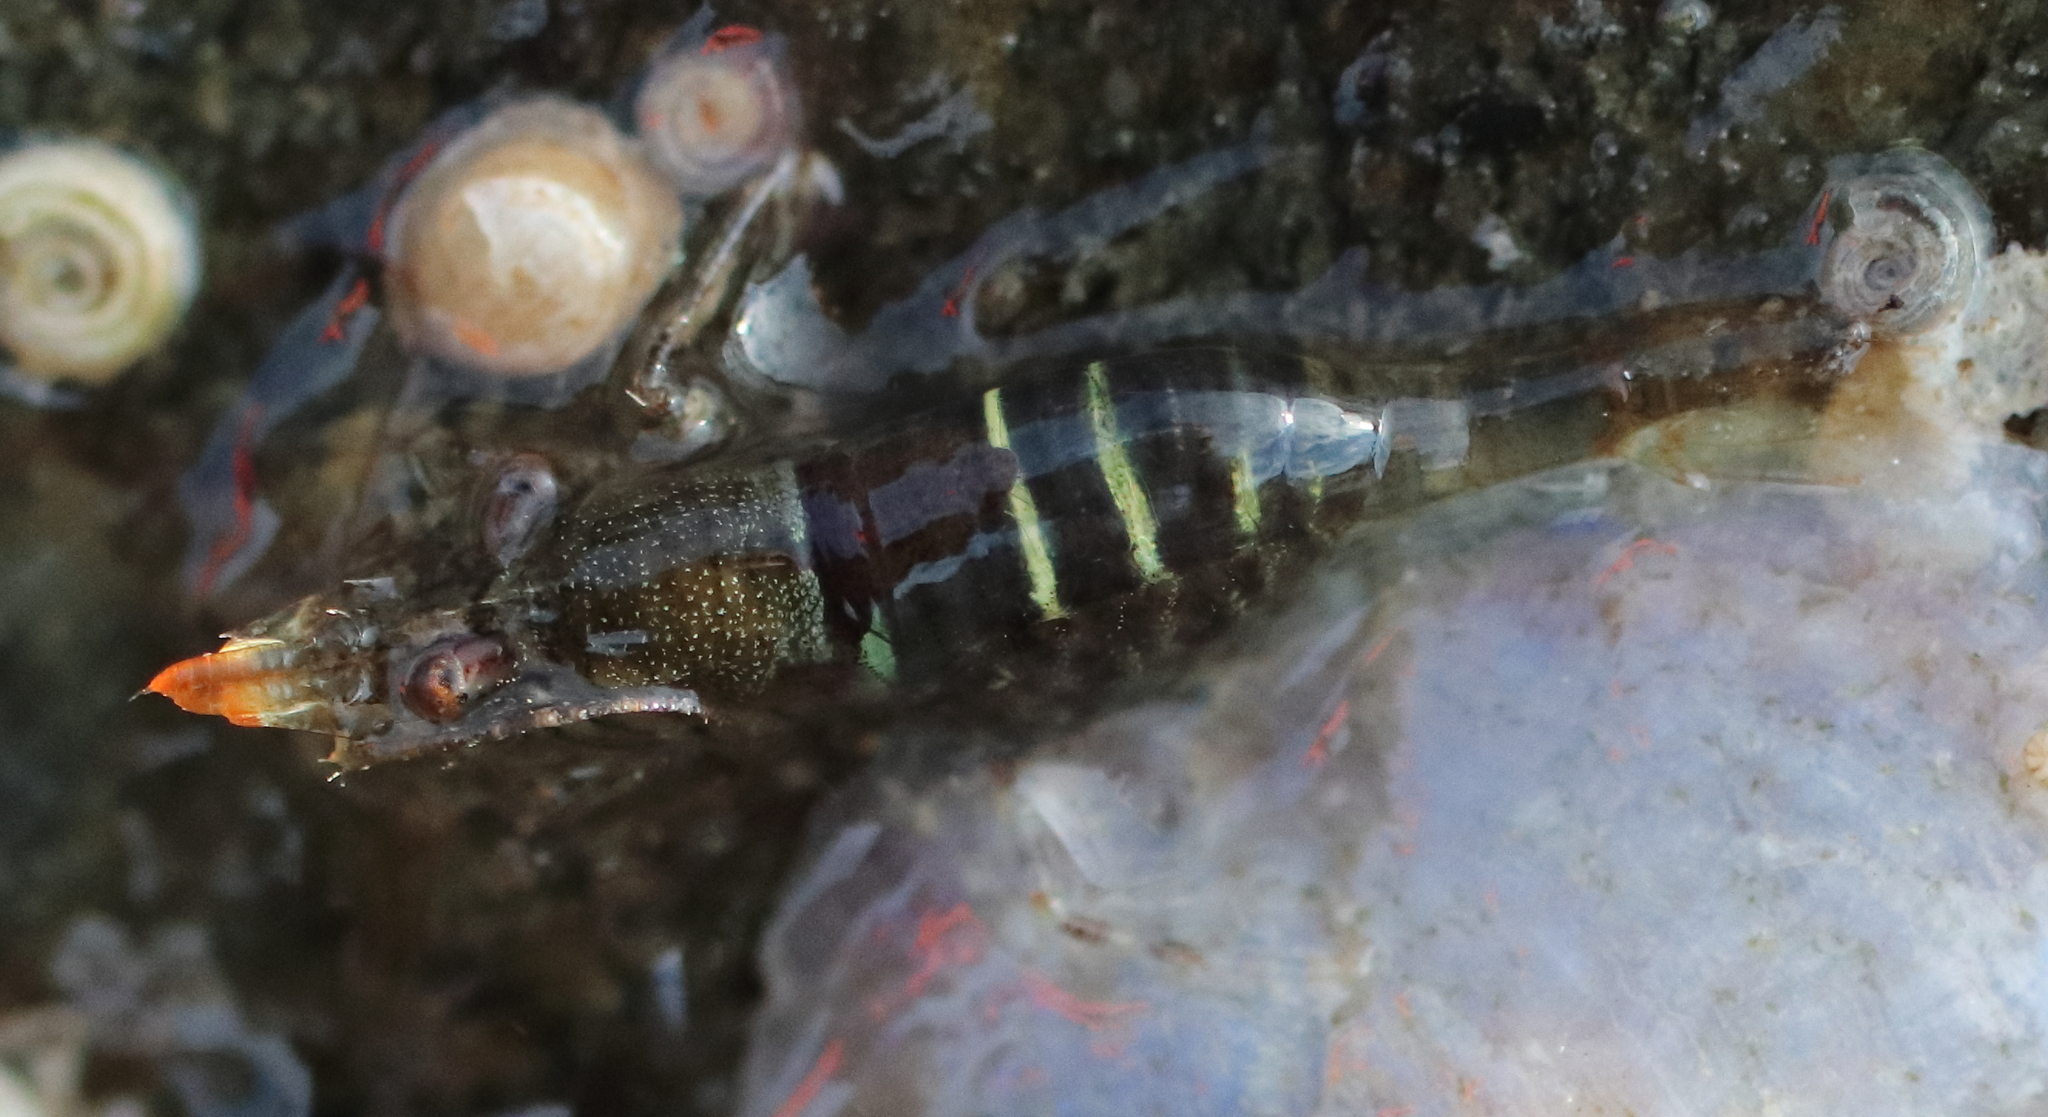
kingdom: Animalia
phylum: Arthropoda
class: Malacostraca
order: Decapoda
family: Thoridae
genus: Heptacarpus
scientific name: Heptacarpus pugettensis
